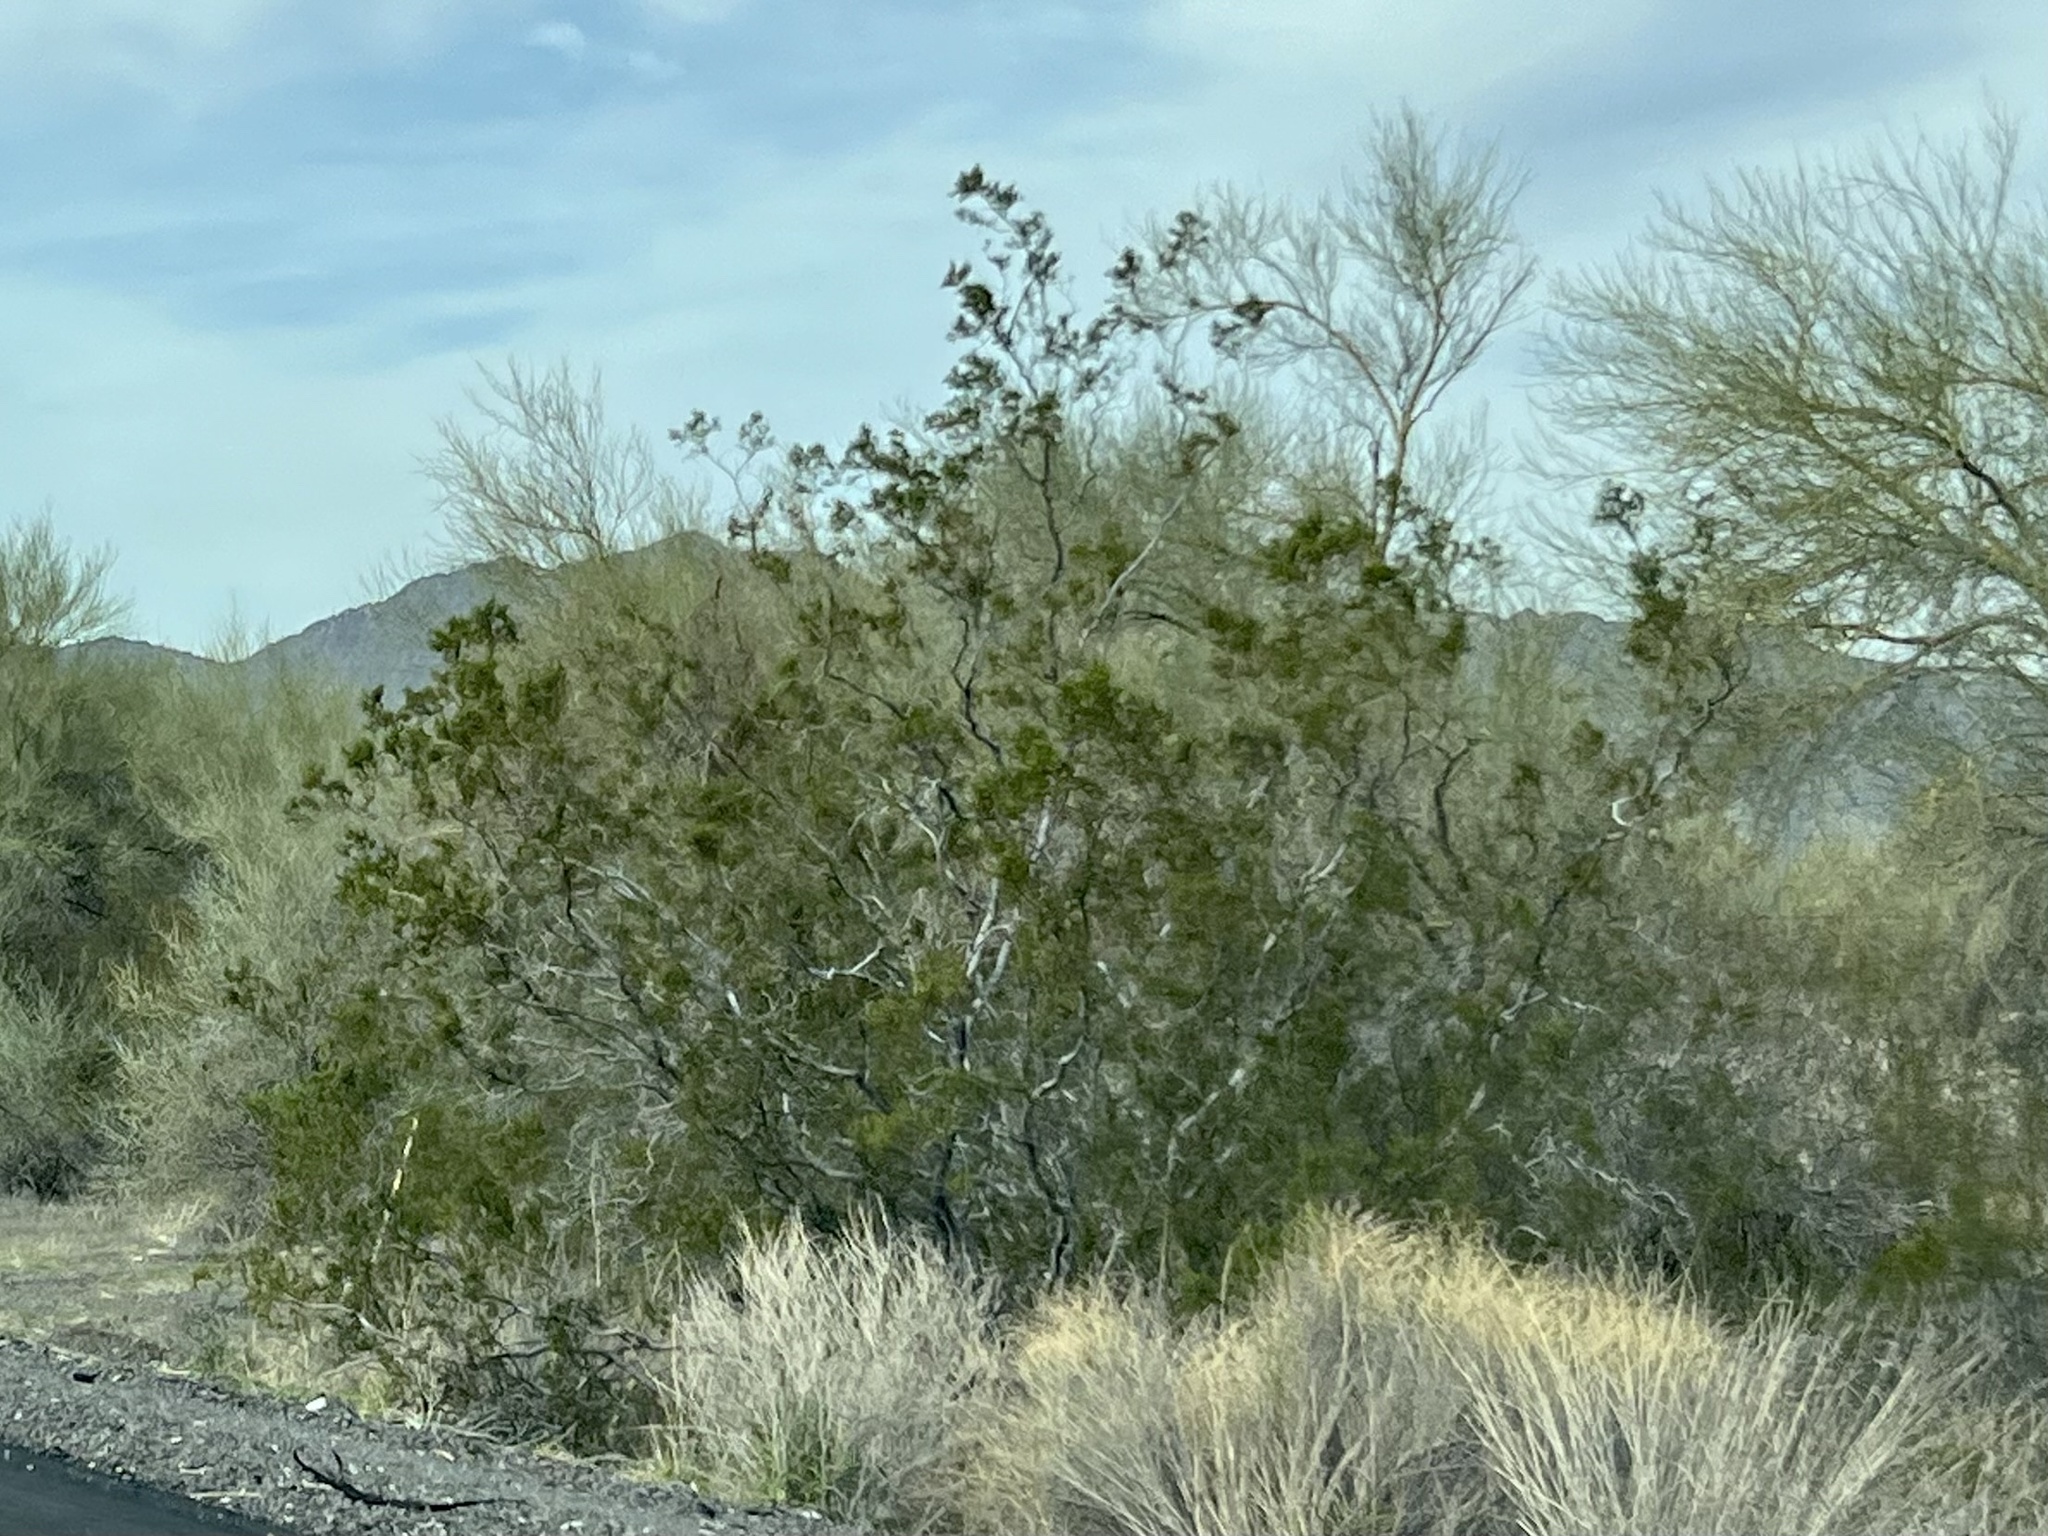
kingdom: Plantae
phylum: Tracheophyta
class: Magnoliopsida
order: Zygophyllales
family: Zygophyllaceae
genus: Larrea
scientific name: Larrea tridentata
